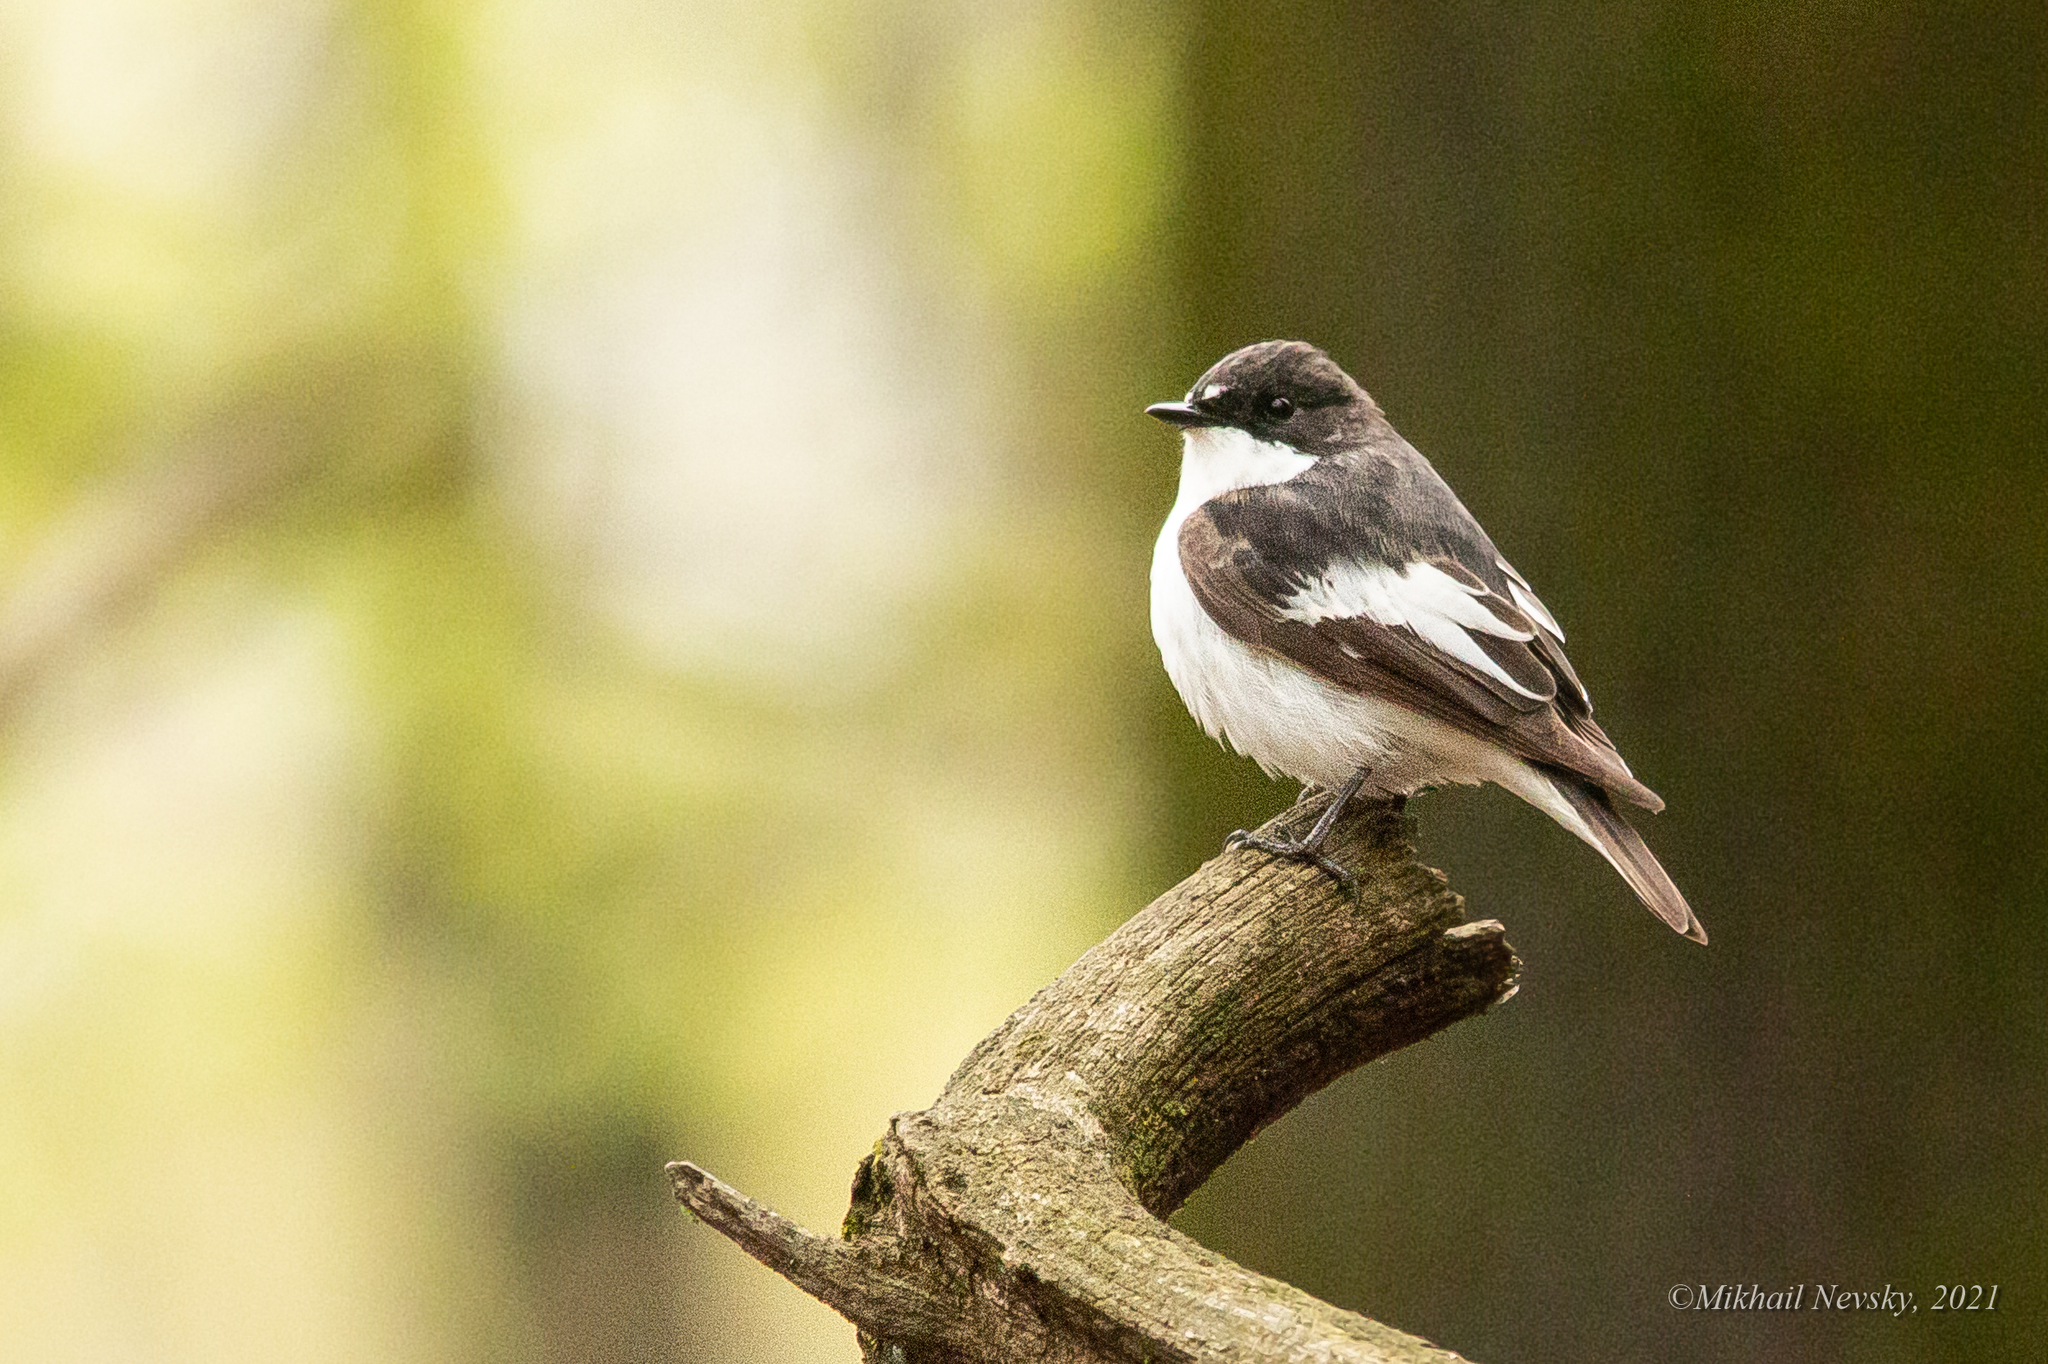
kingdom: Animalia
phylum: Chordata
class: Aves
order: Passeriformes
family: Muscicapidae
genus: Ficedula
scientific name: Ficedula hypoleuca
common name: European pied flycatcher
